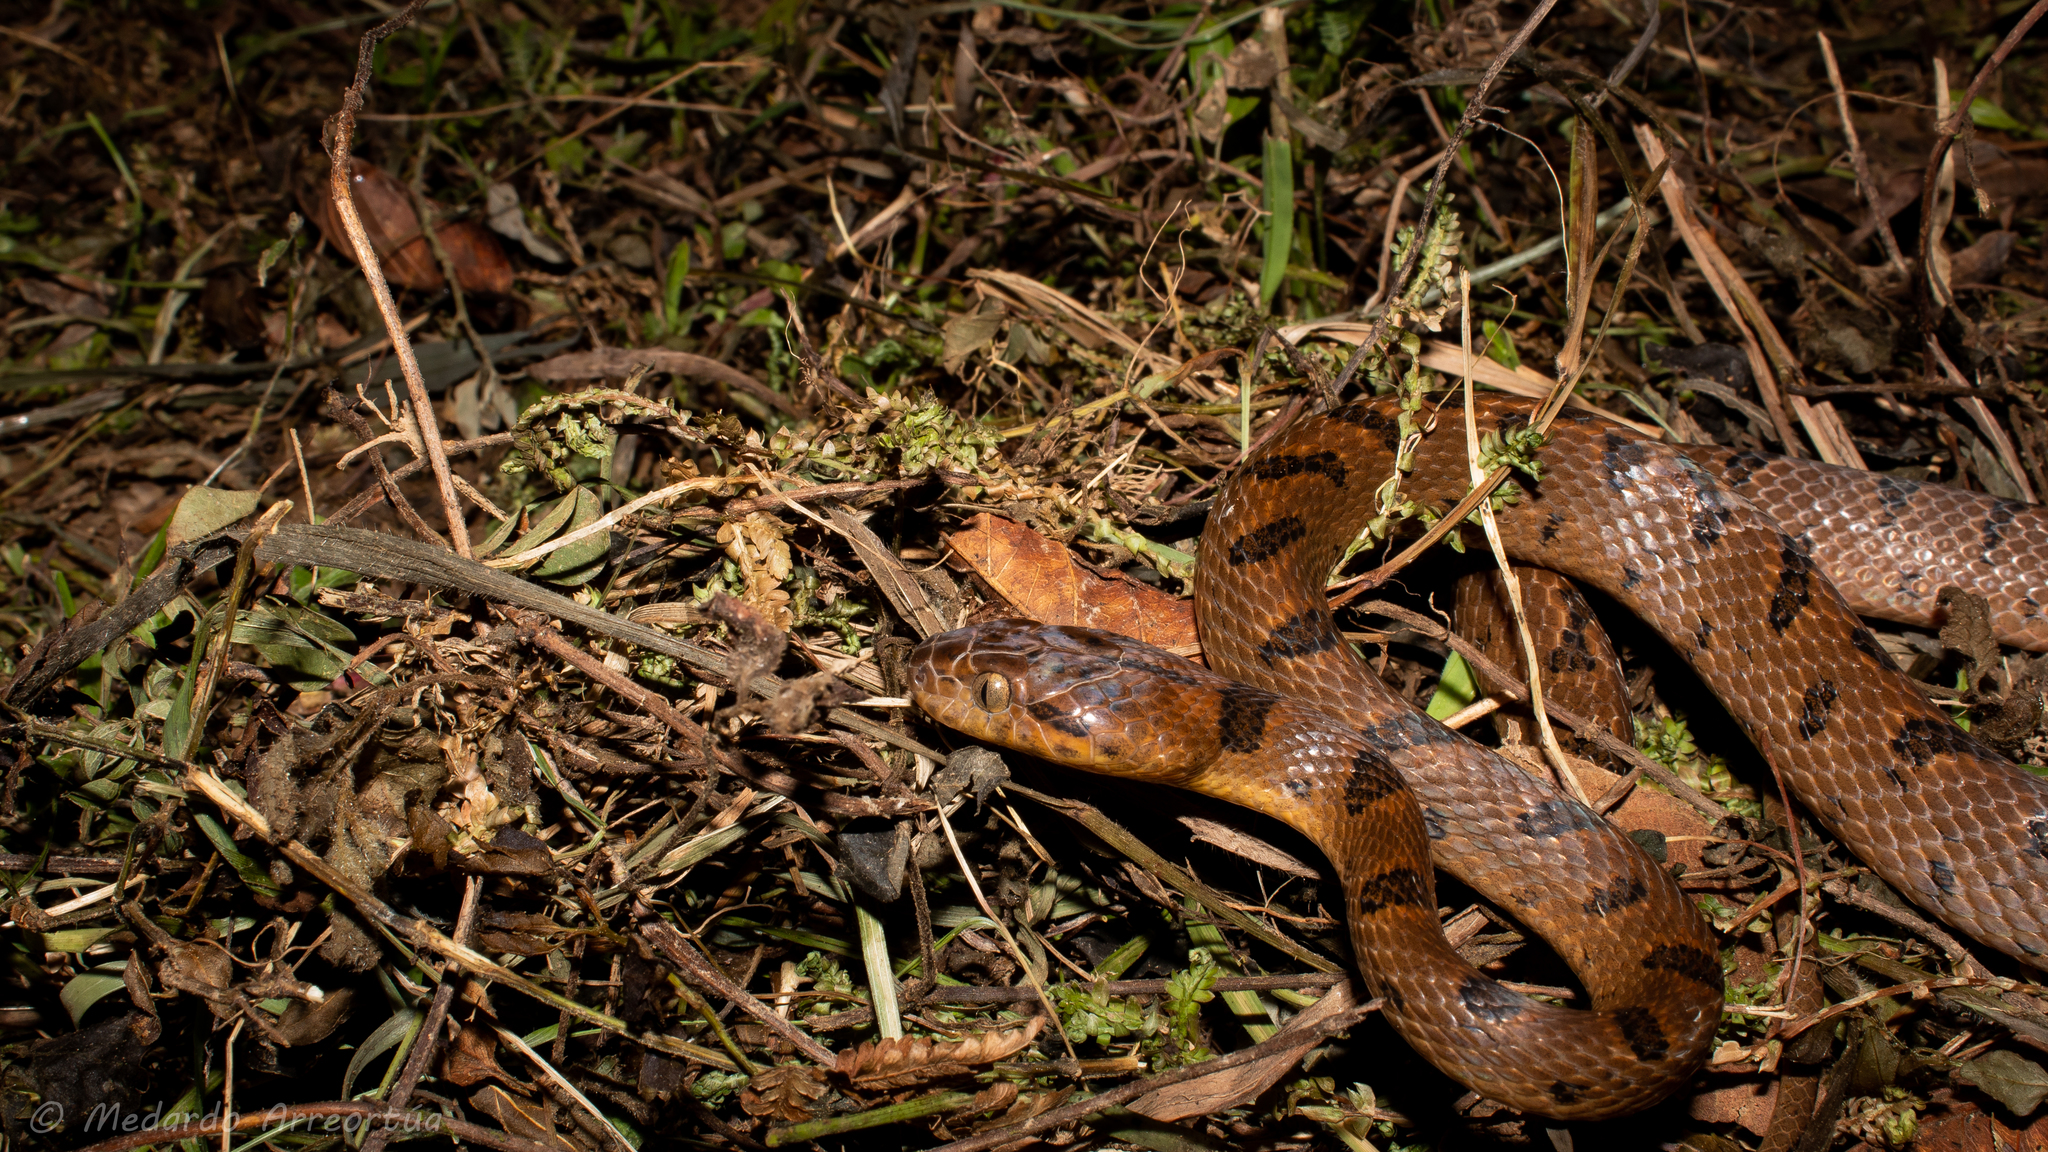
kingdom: Animalia
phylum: Chordata
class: Squamata
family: Colubridae
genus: Leptodeira
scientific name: Leptodeira septentrionalis
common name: Northern cat-eyed snake
